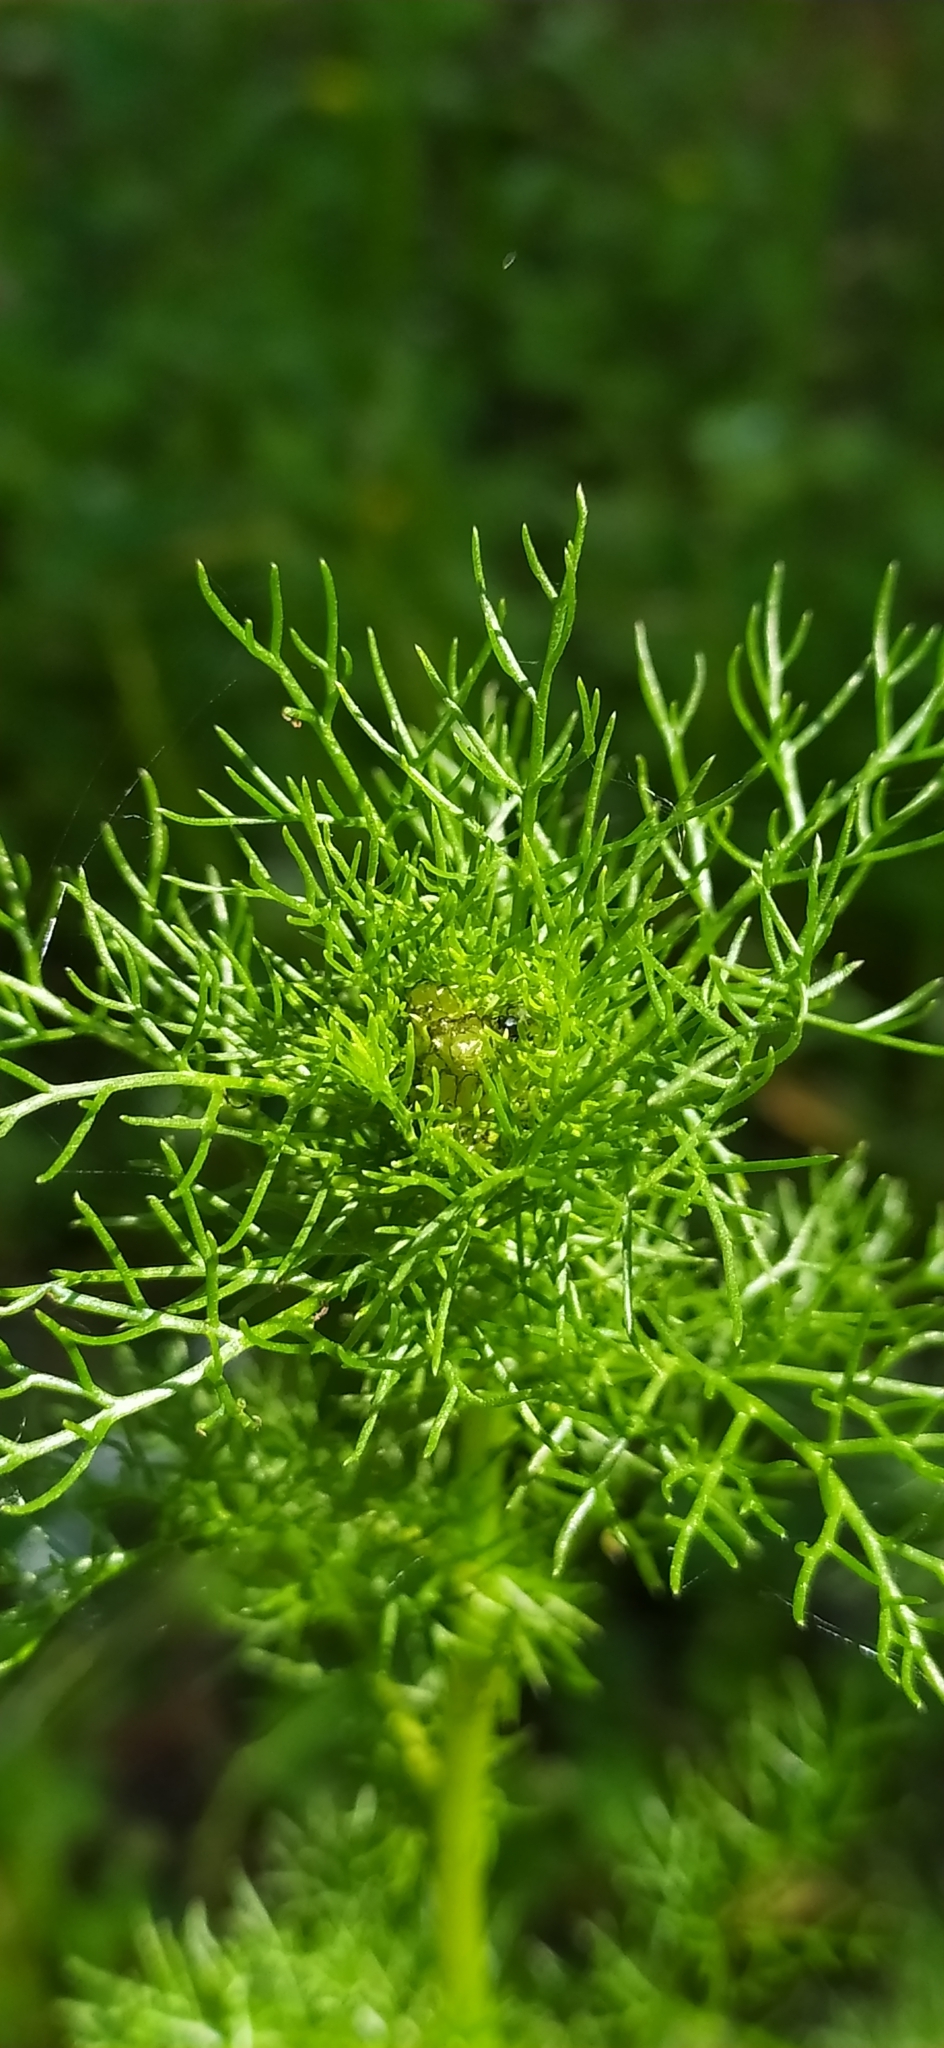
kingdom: Plantae
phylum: Tracheophyta
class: Magnoliopsida
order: Asterales
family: Asteraceae
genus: Tripleurospermum
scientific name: Tripleurospermum inodorum
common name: Scentless mayweed
